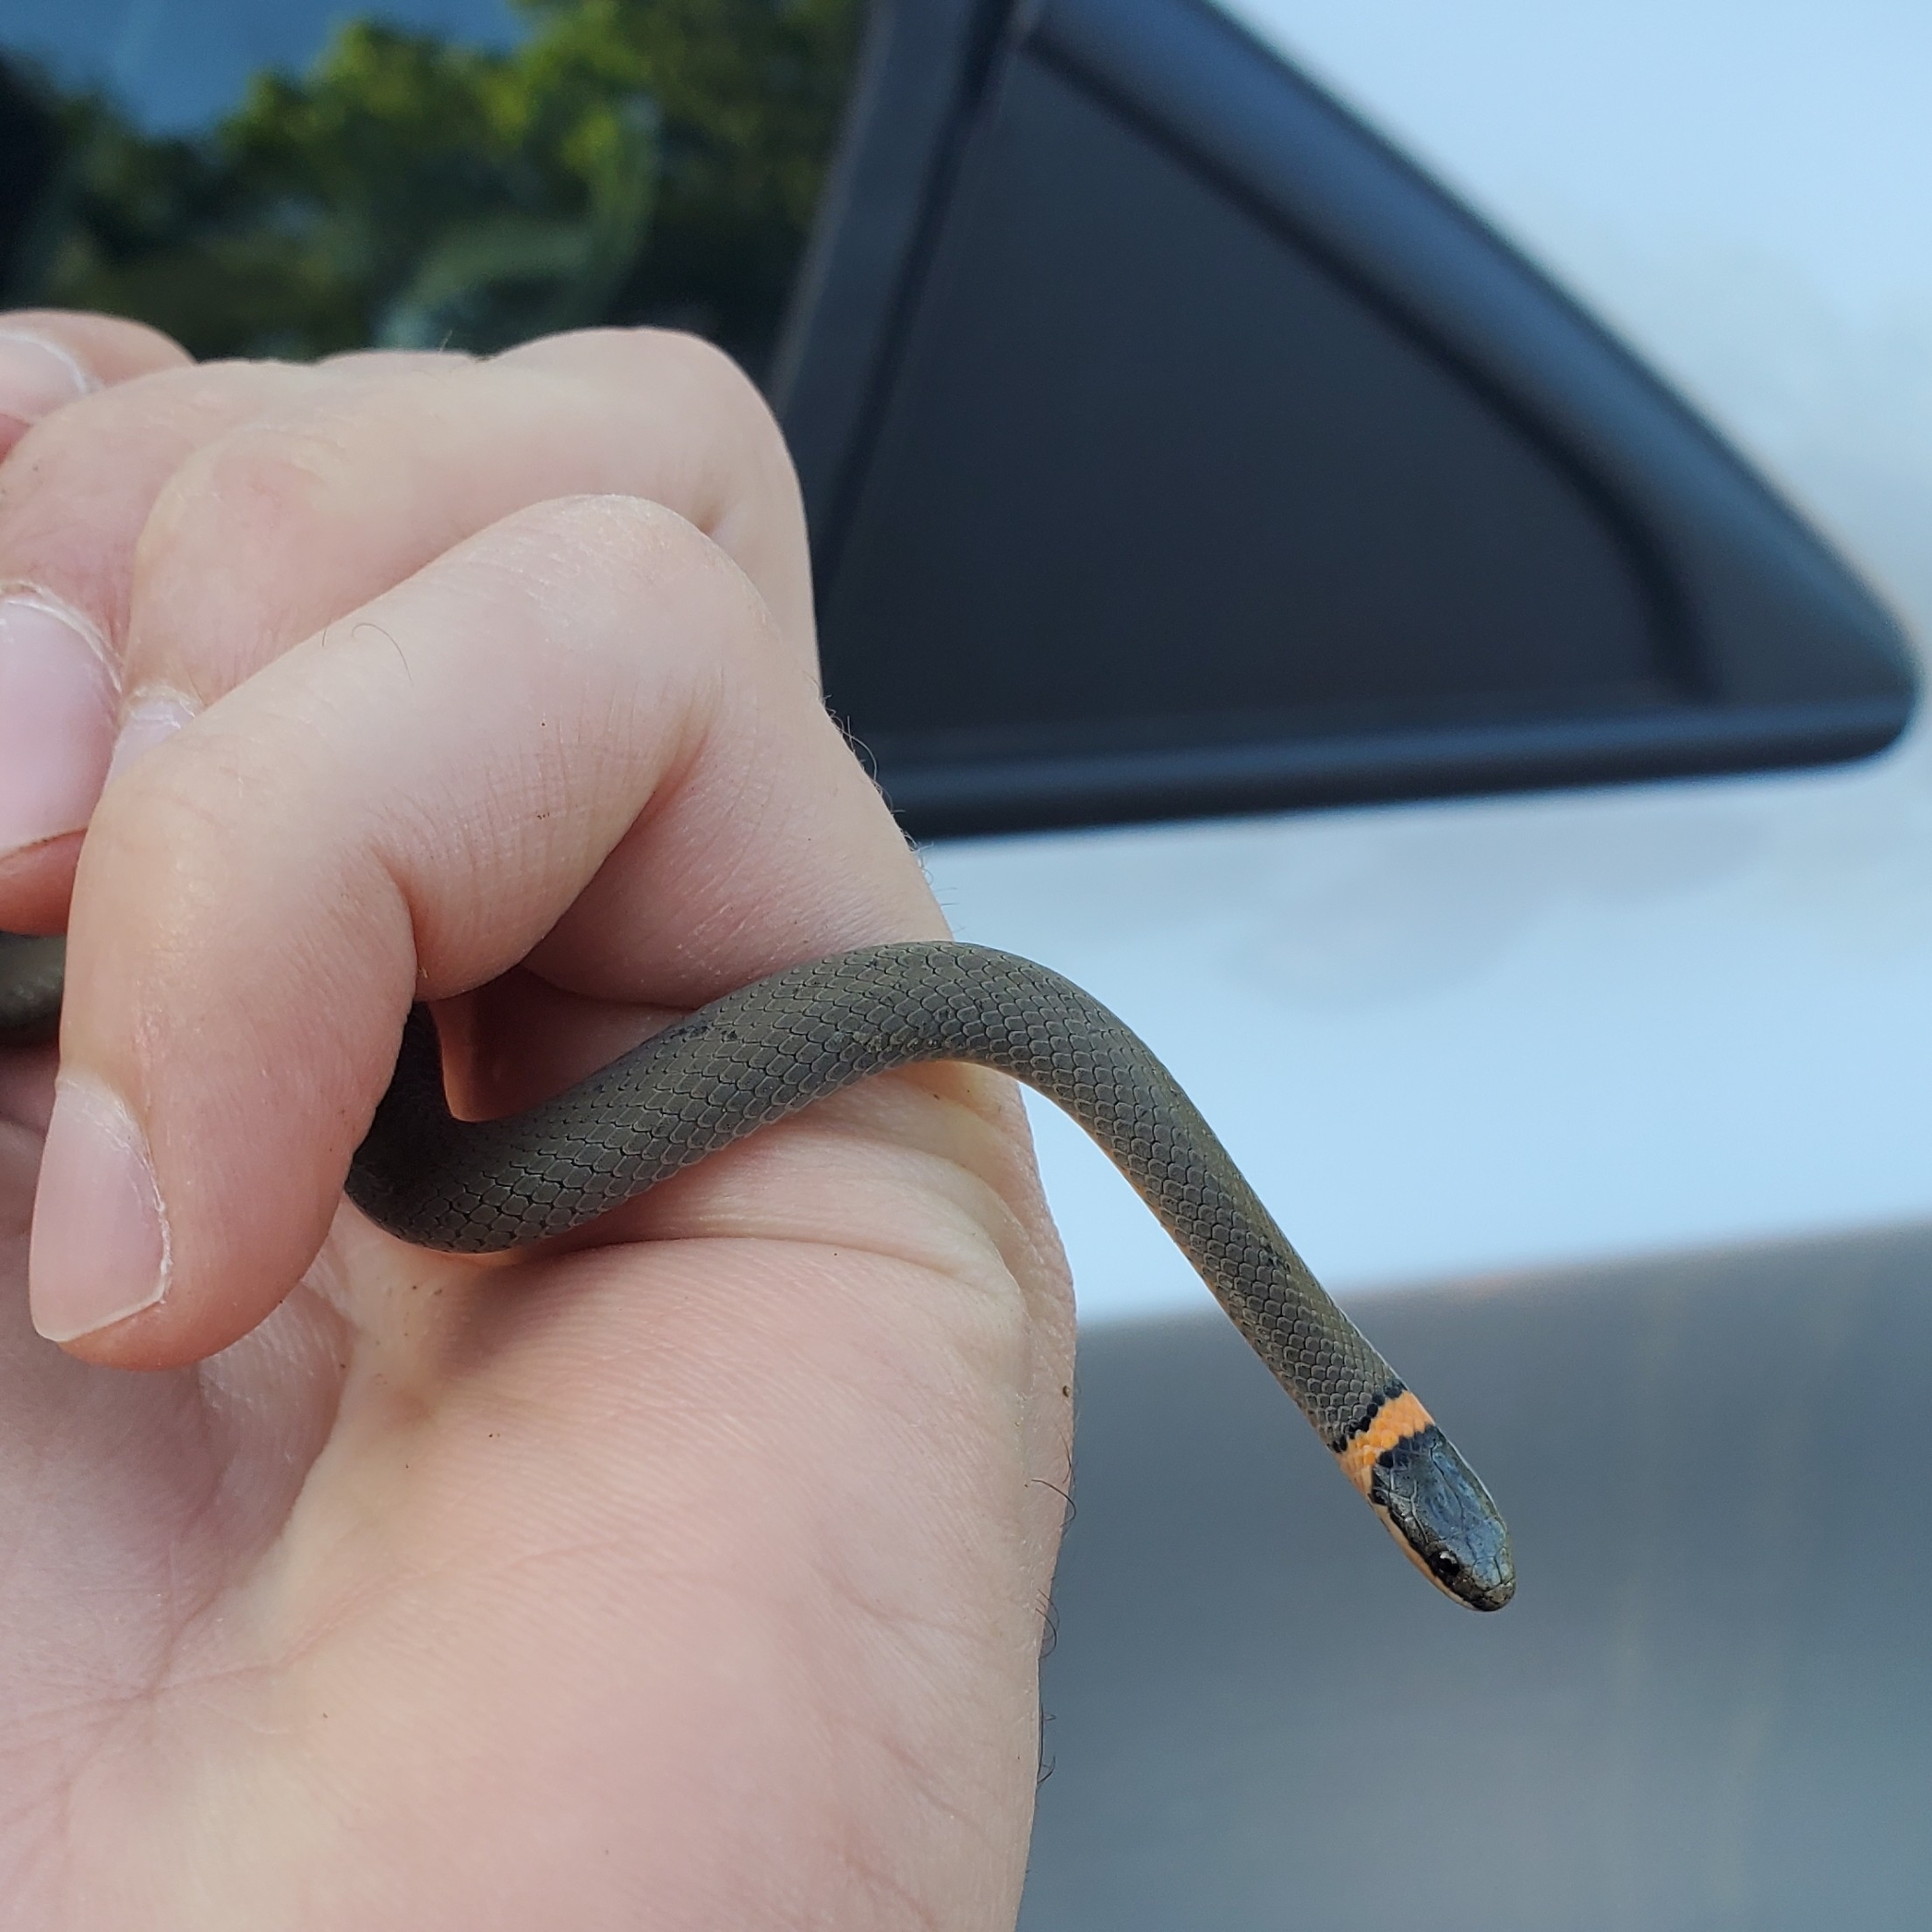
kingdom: Animalia
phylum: Chordata
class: Squamata
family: Colubridae
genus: Diadophis
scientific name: Diadophis punctatus
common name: Ringneck snake
